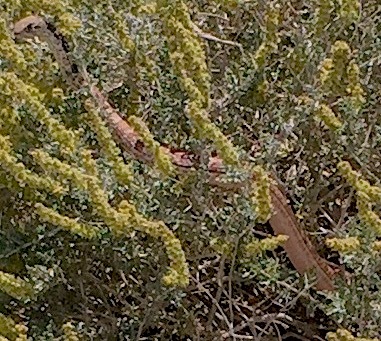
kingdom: Animalia
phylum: Chordata
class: Squamata
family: Colubridae
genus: Masticophis
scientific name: Masticophis flagellum
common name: Coachwhip
